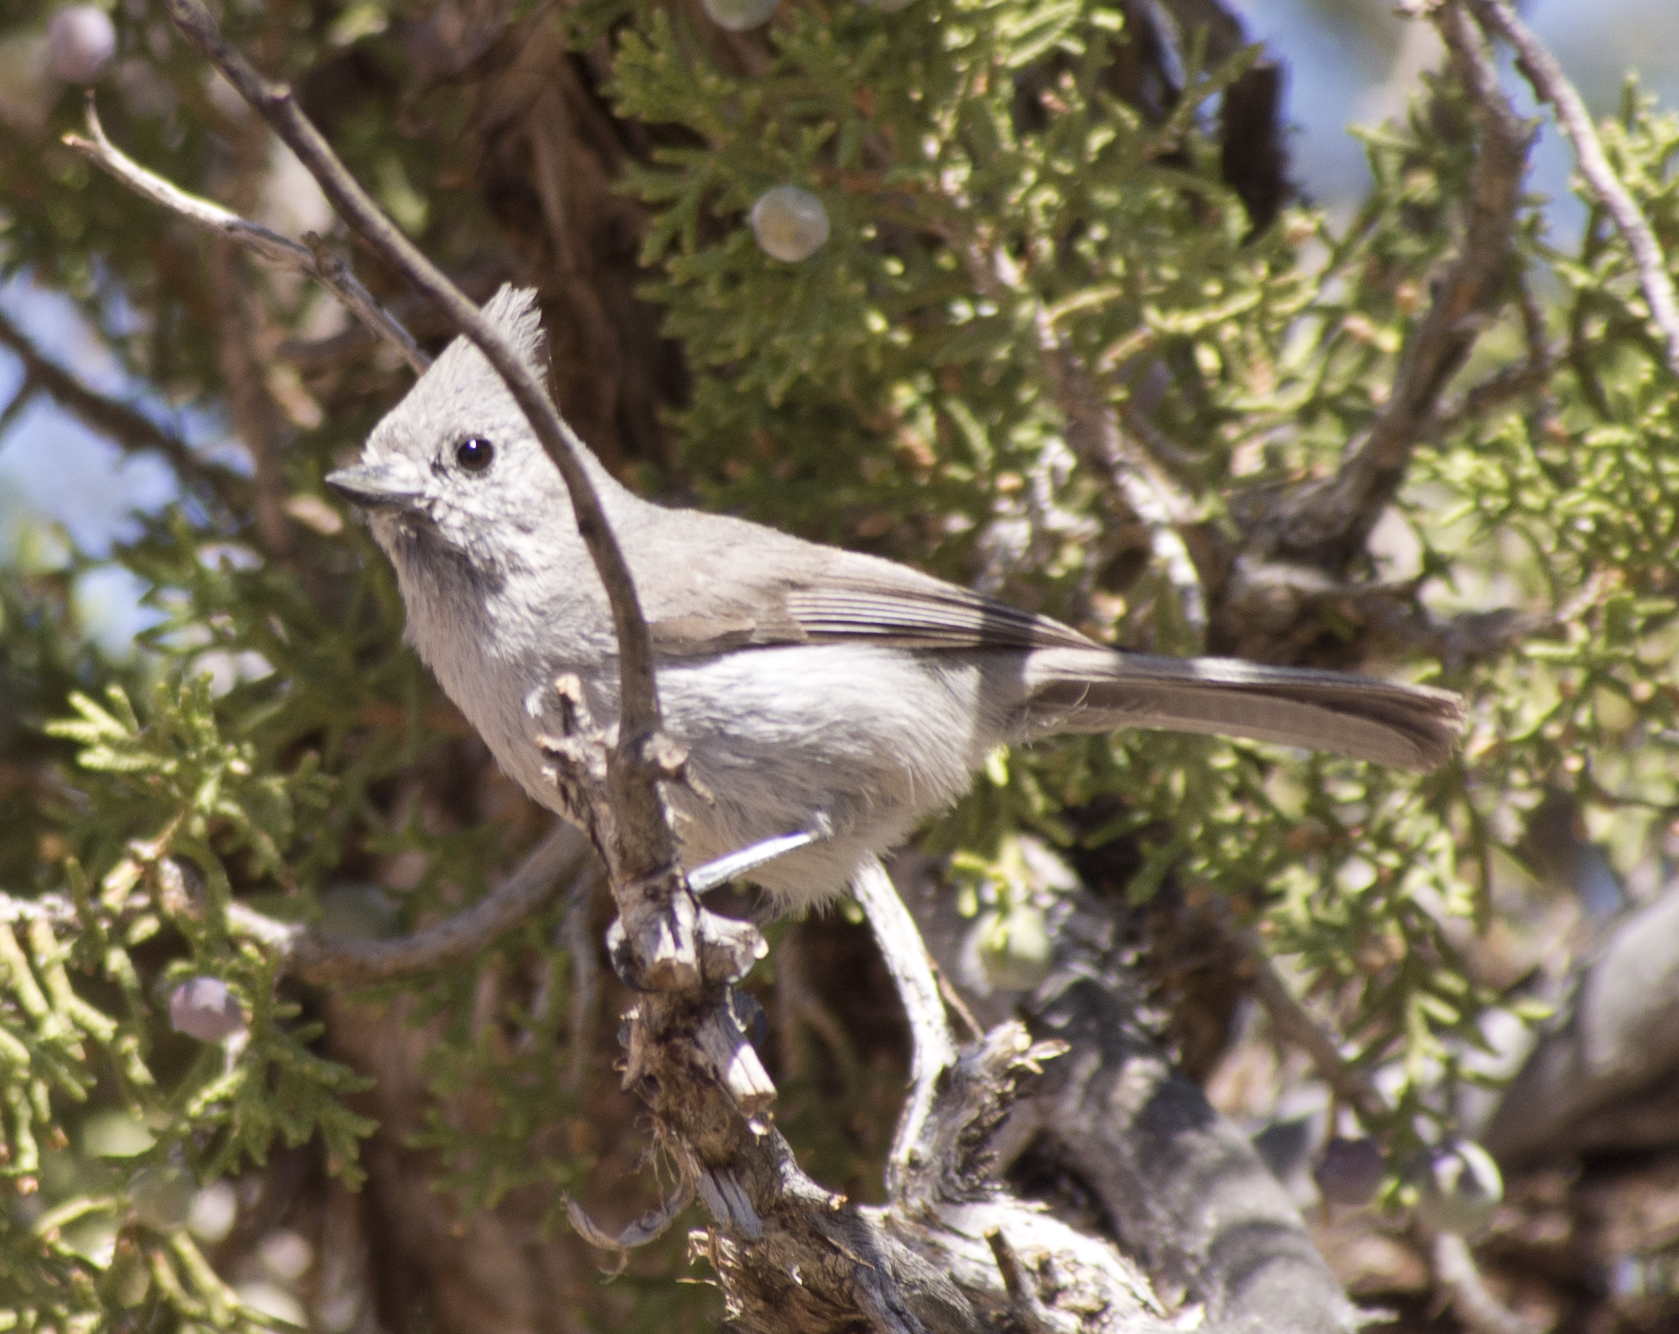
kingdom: Animalia
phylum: Chordata
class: Aves
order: Passeriformes
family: Paridae
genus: Baeolophus
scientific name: Baeolophus ridgwayi
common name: Juniper titmouse
